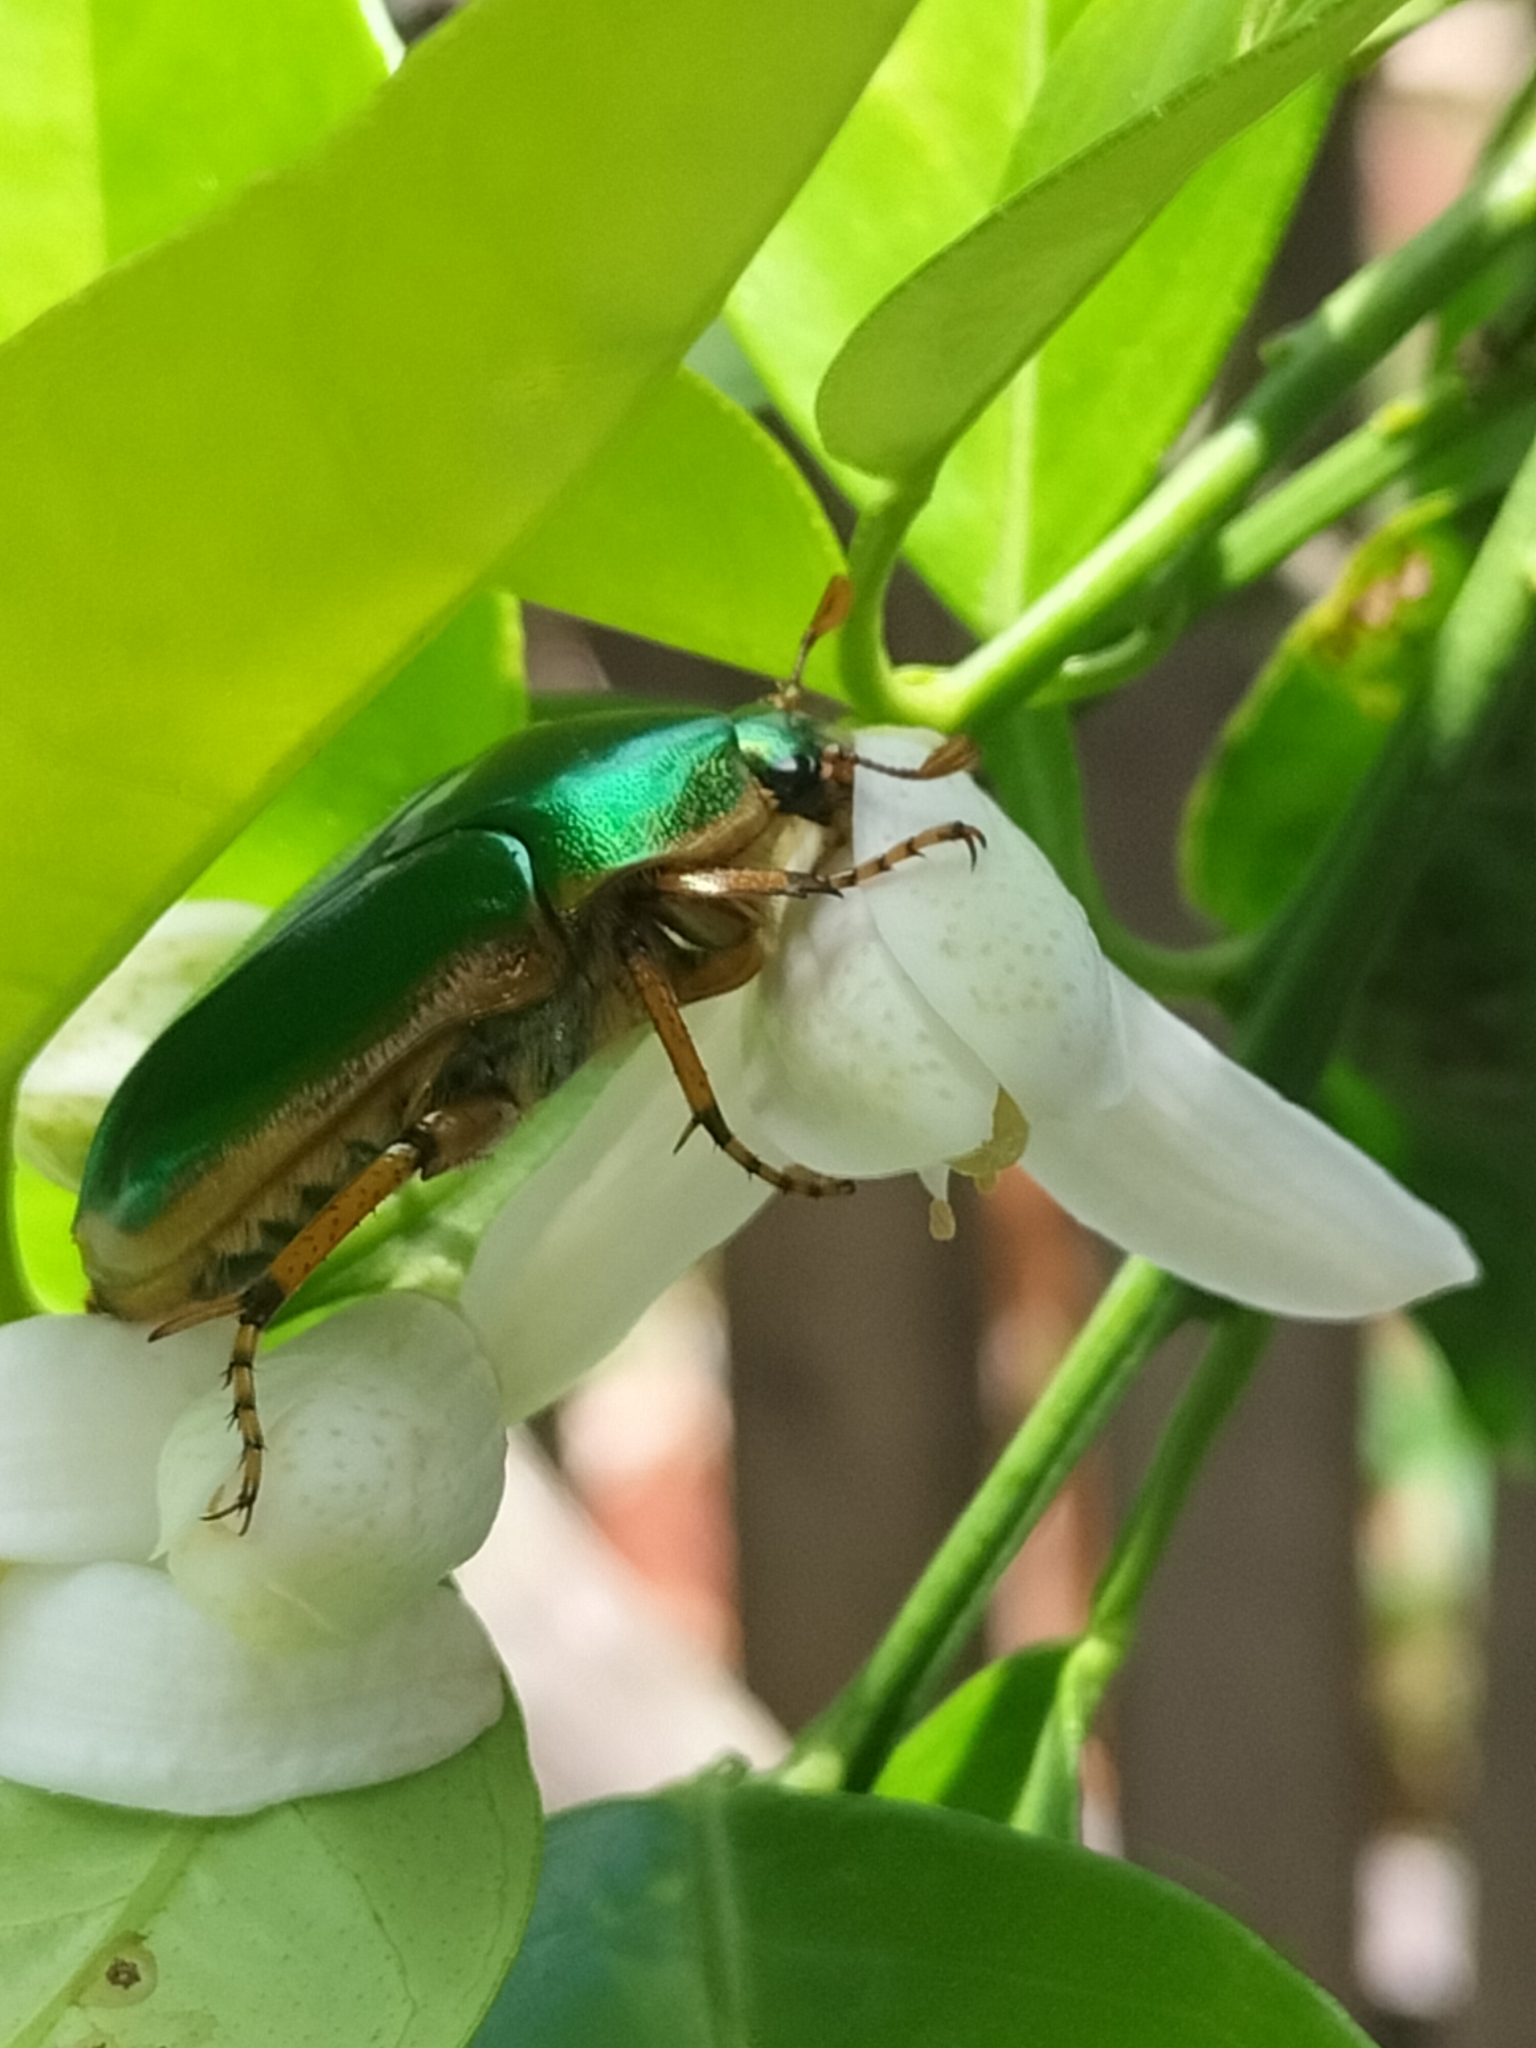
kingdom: Animalia
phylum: Arthropoda
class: Insecta
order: Coleoptera
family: Scarabaeidae
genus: Mycterophallus
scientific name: Mycterophallus duboulayi
